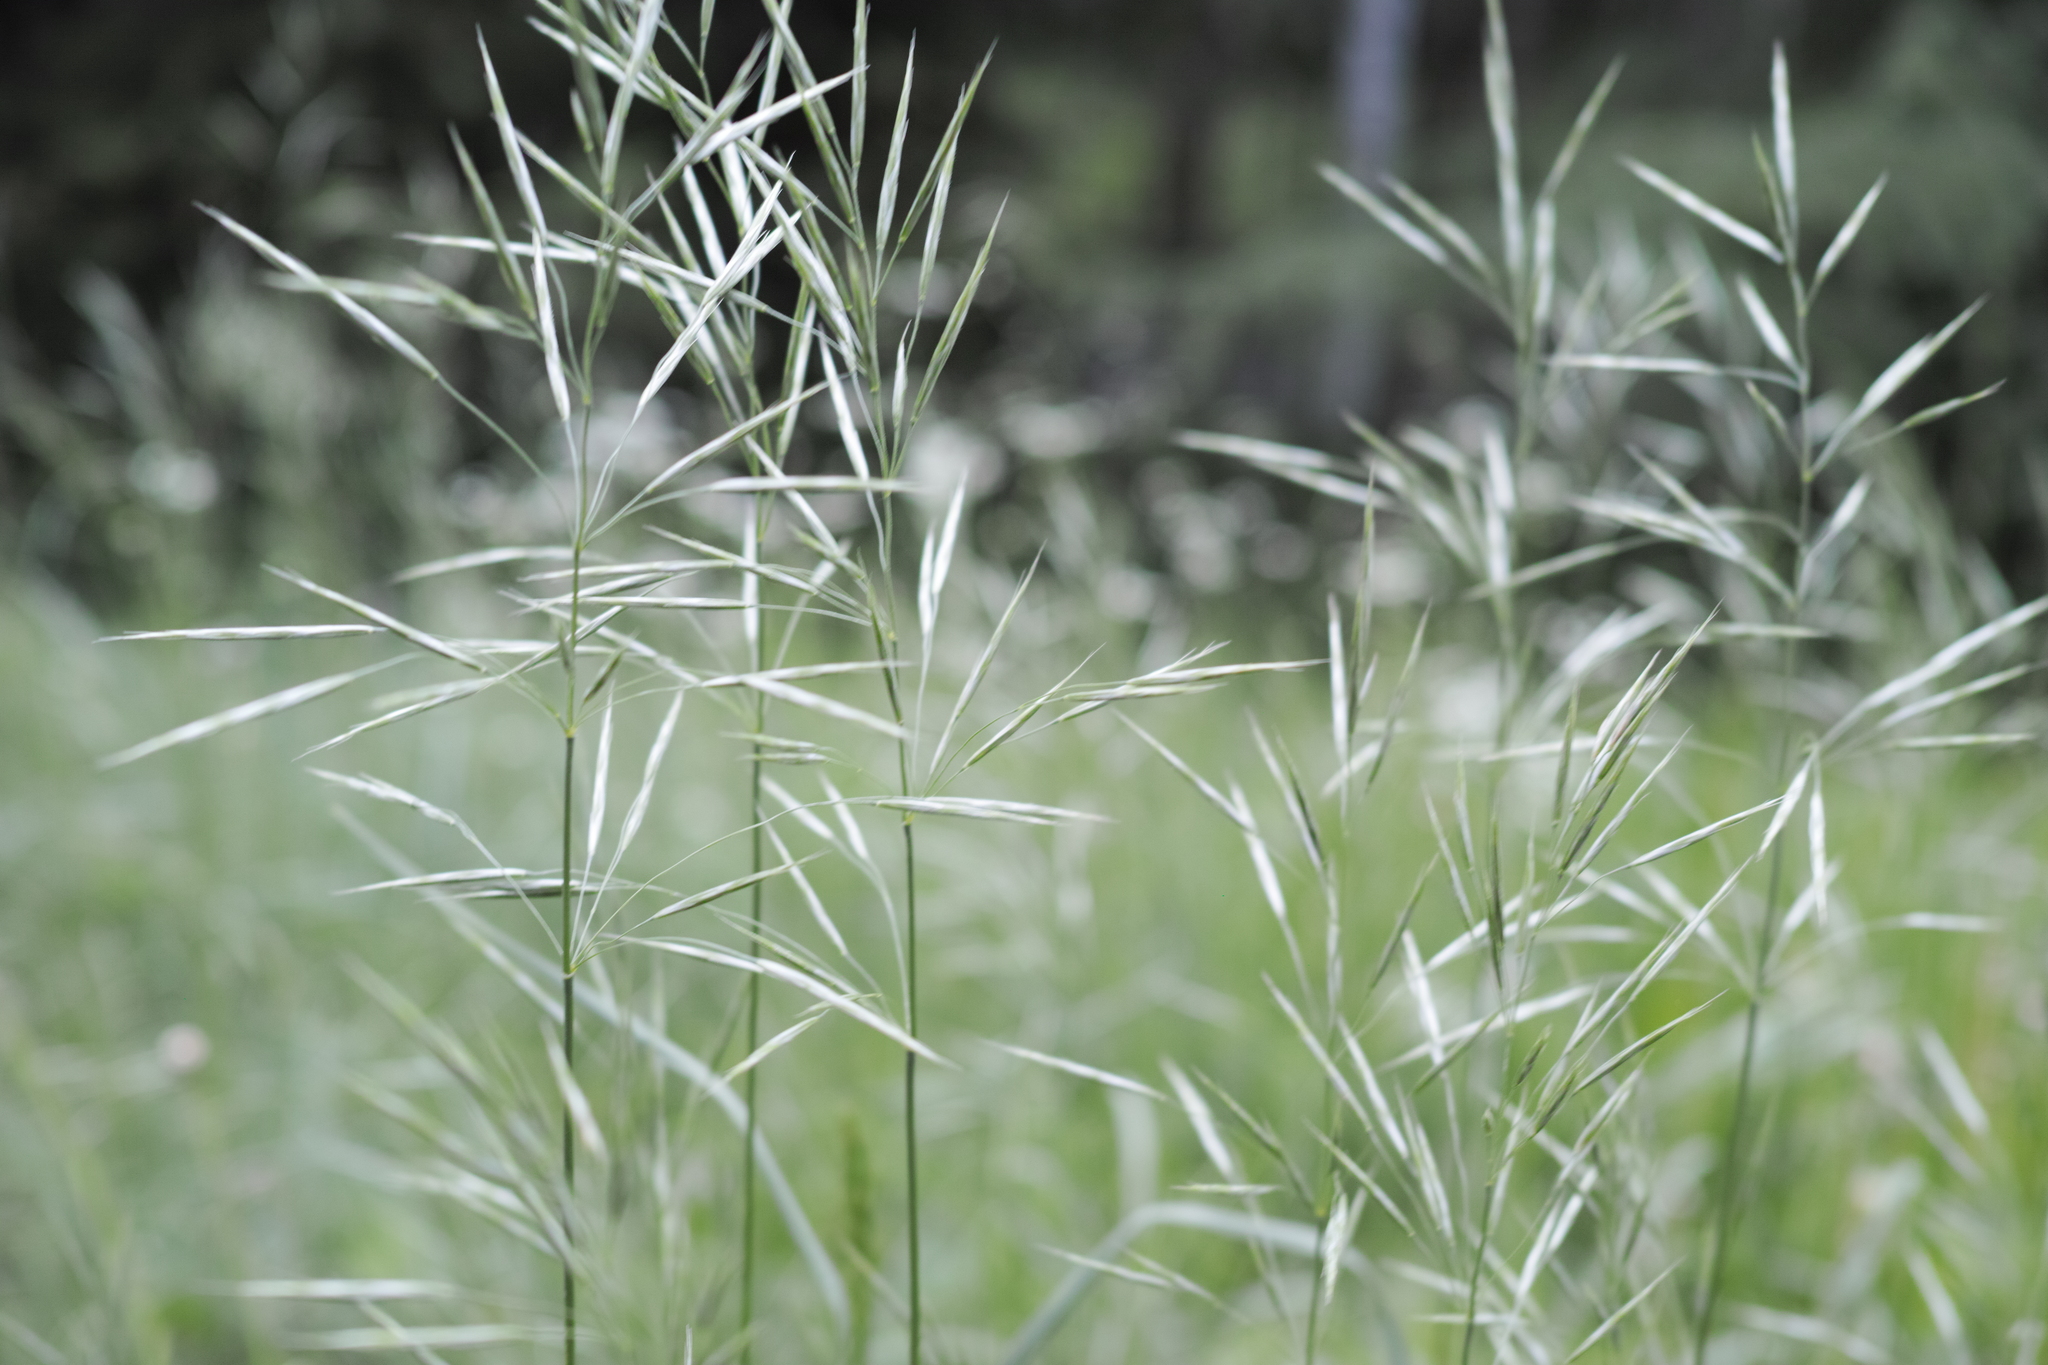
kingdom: Plantae
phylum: Tracheophyta
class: Liliopsida
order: Poales
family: Poaceae
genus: Bromus
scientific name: Bromus inermis
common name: Smooth brome
